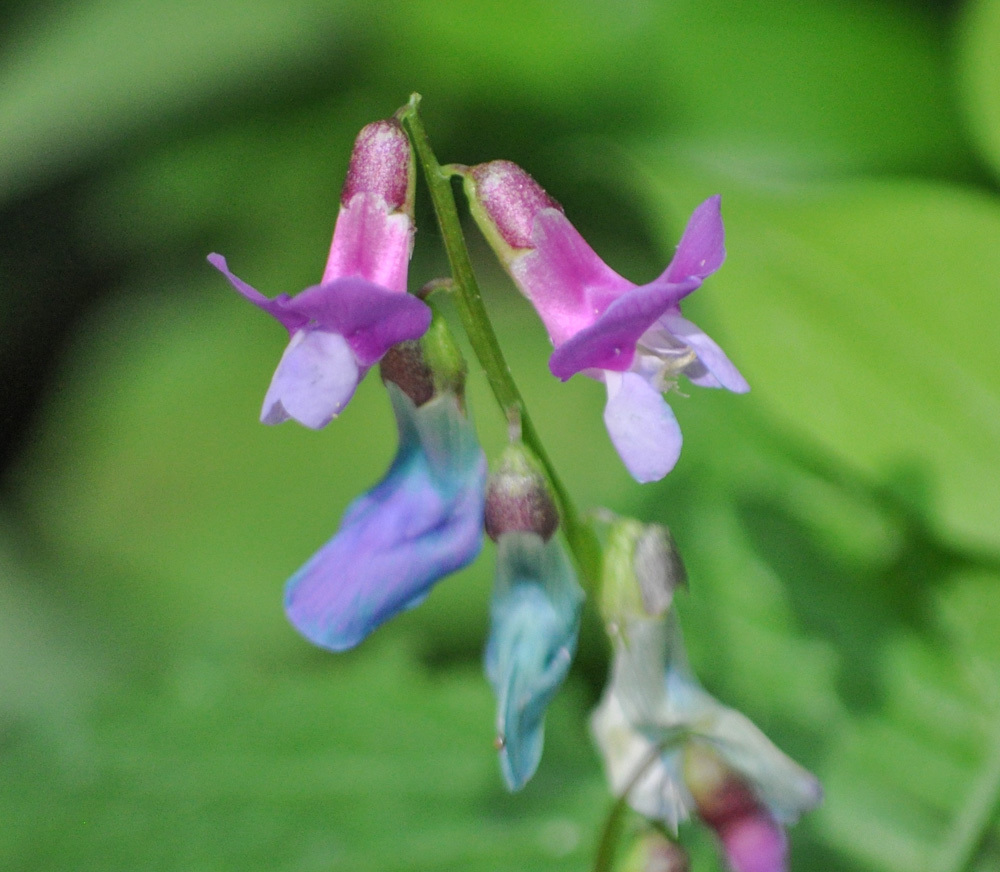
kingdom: Plantae
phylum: Tracheophyta
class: Magnoliopsida
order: Fabales
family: Fabaceae
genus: Lathyrus
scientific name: Lathyrus vernus
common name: Spring pea
